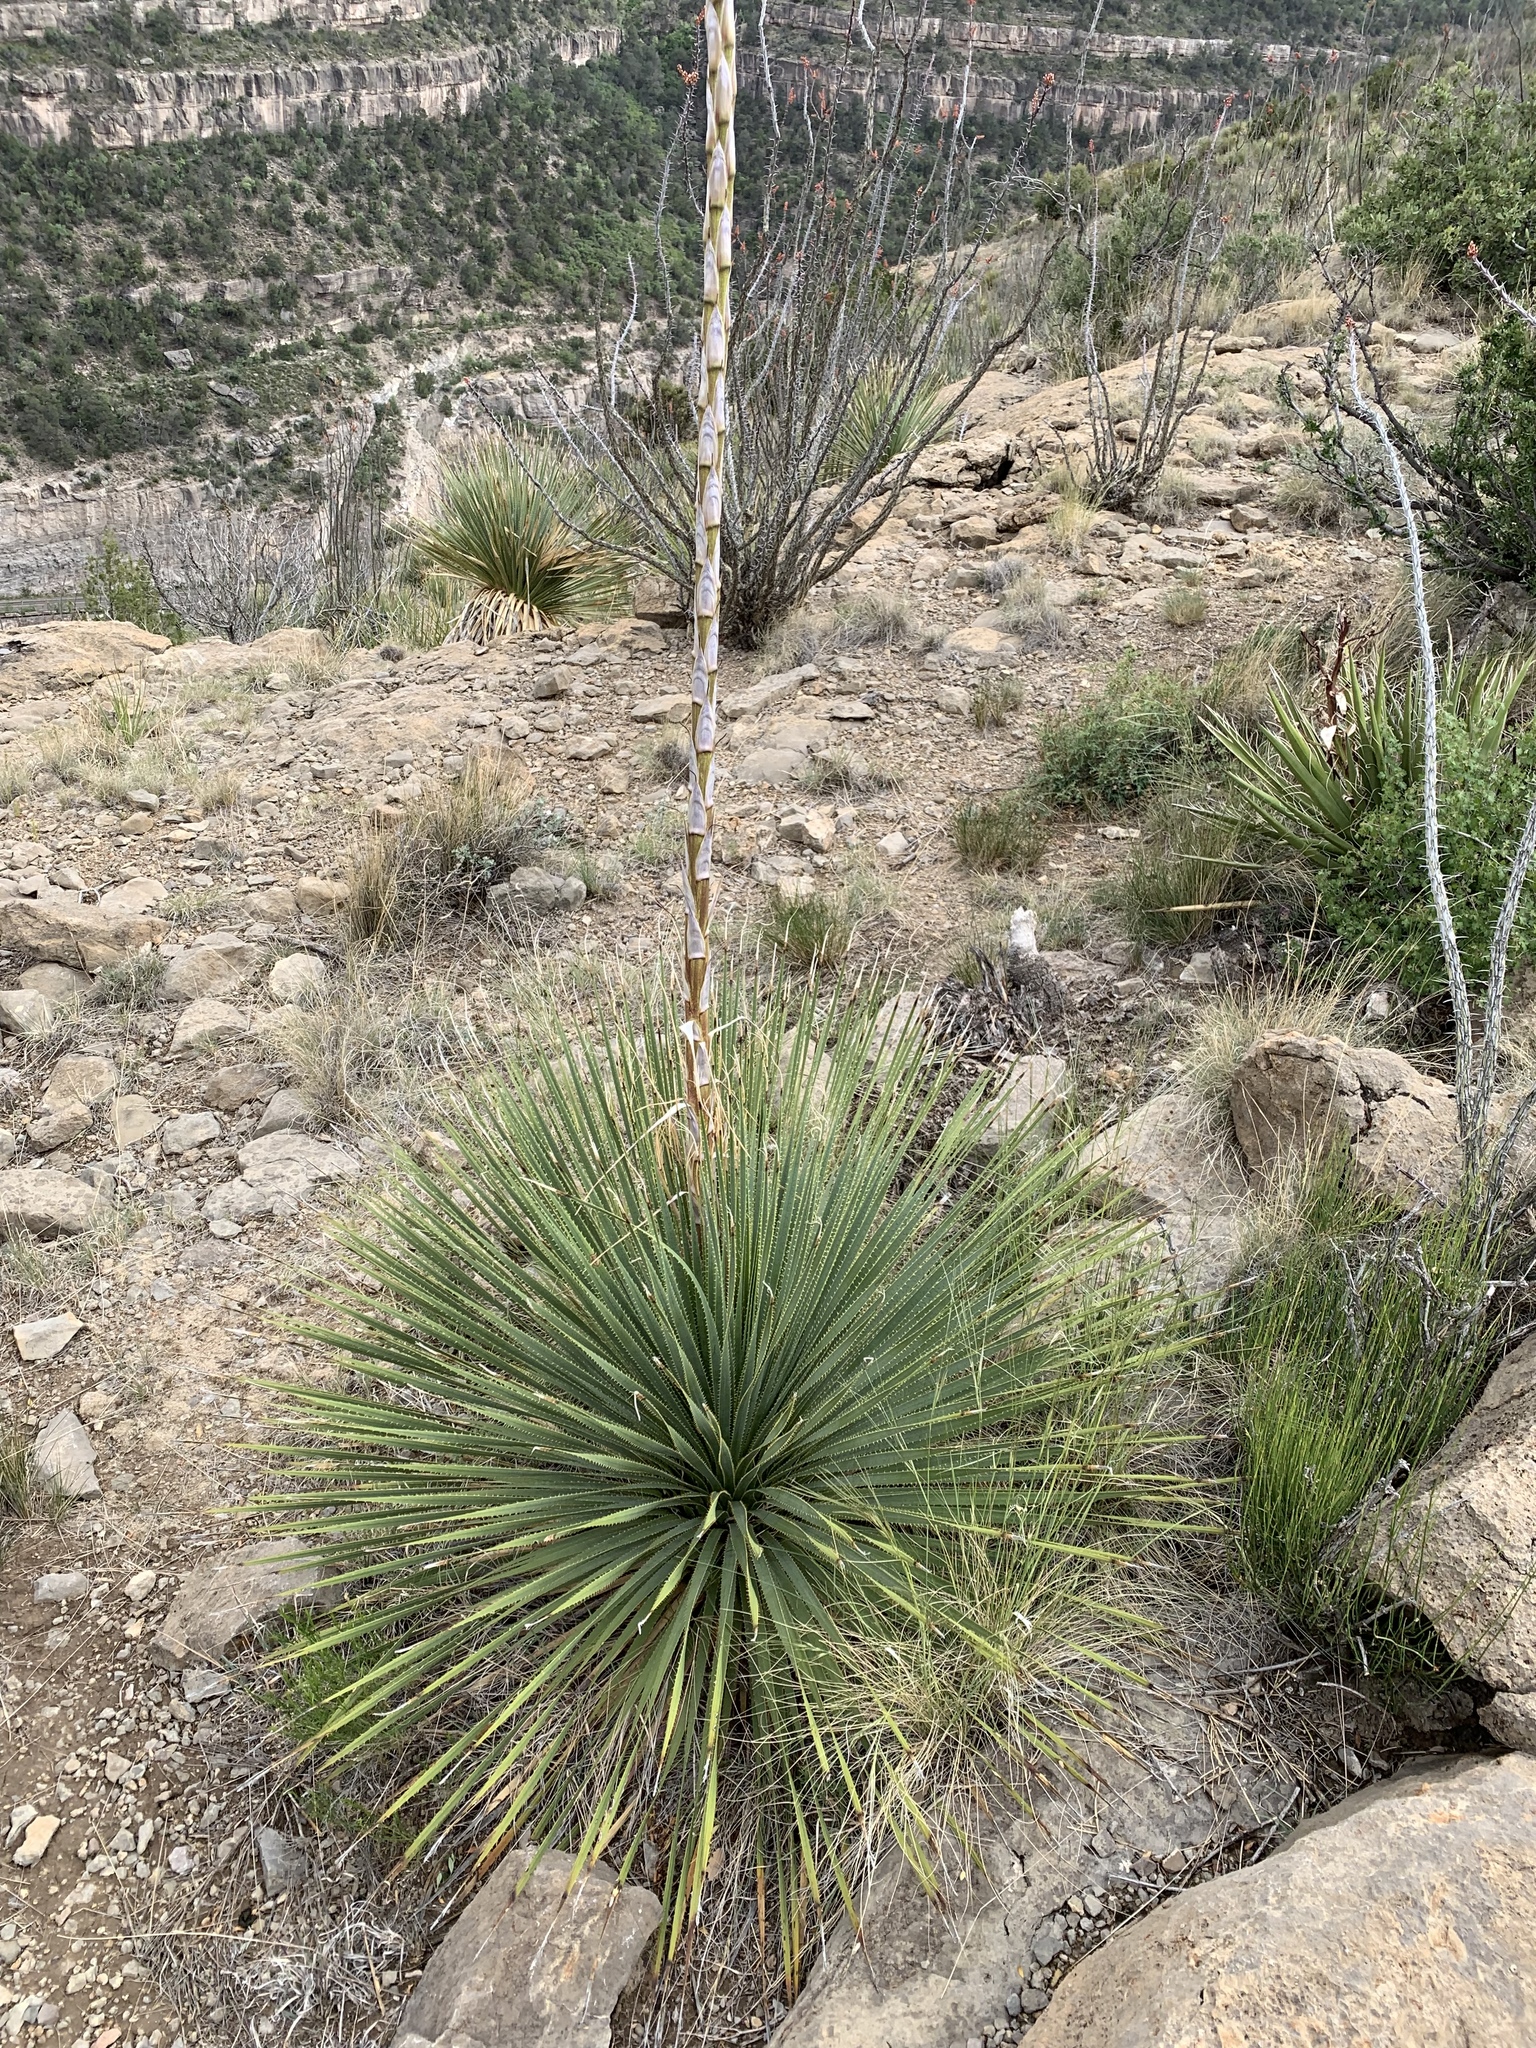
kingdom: Plantae
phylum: Tracheophyta
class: Liliopsida
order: Asparagales
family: Asparagaceae
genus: Dasylirion
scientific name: Dasylirion wheeleri
